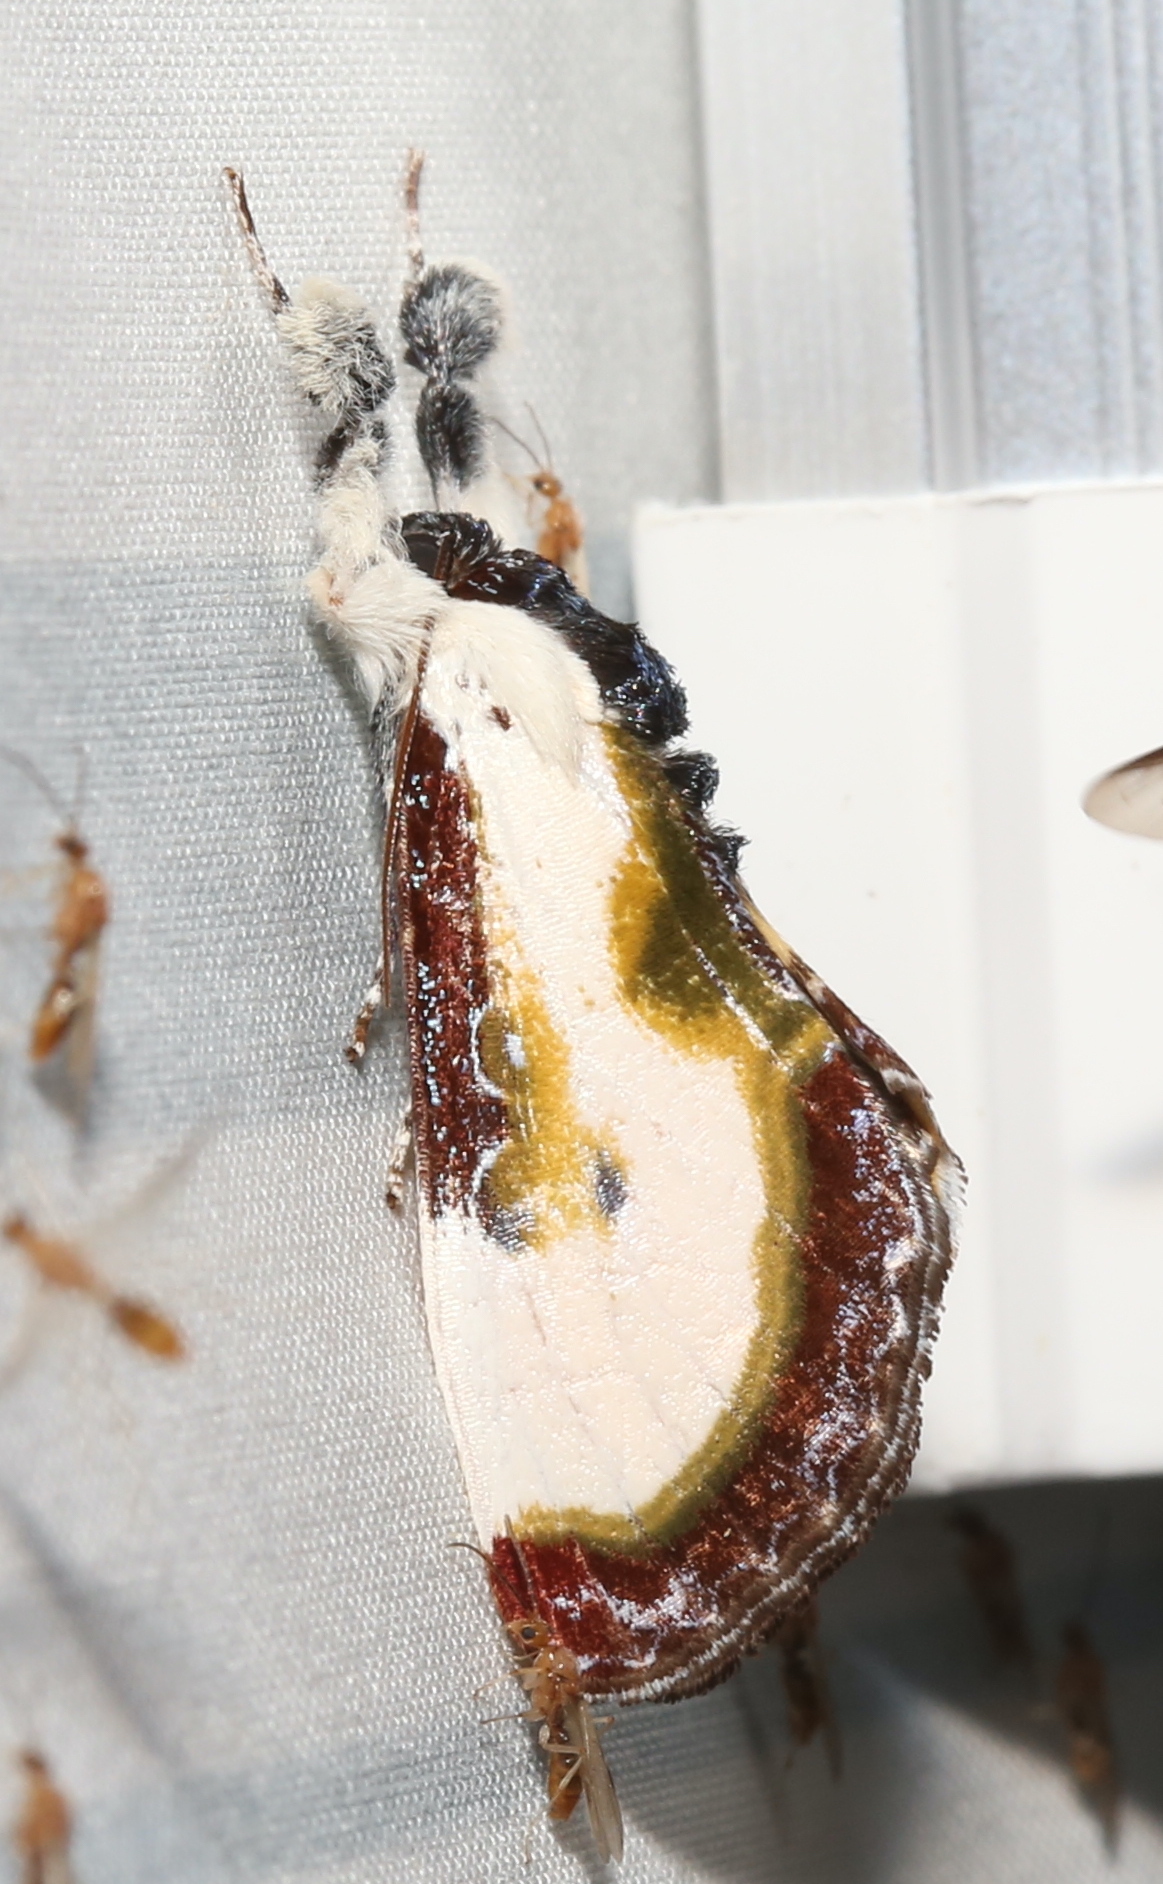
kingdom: Animalia
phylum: Arthropoda
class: Insecta
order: Lepidoptera
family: Noctuidae
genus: Eudryas
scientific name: Eudryas grata
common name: Beautiful wood-nymph
